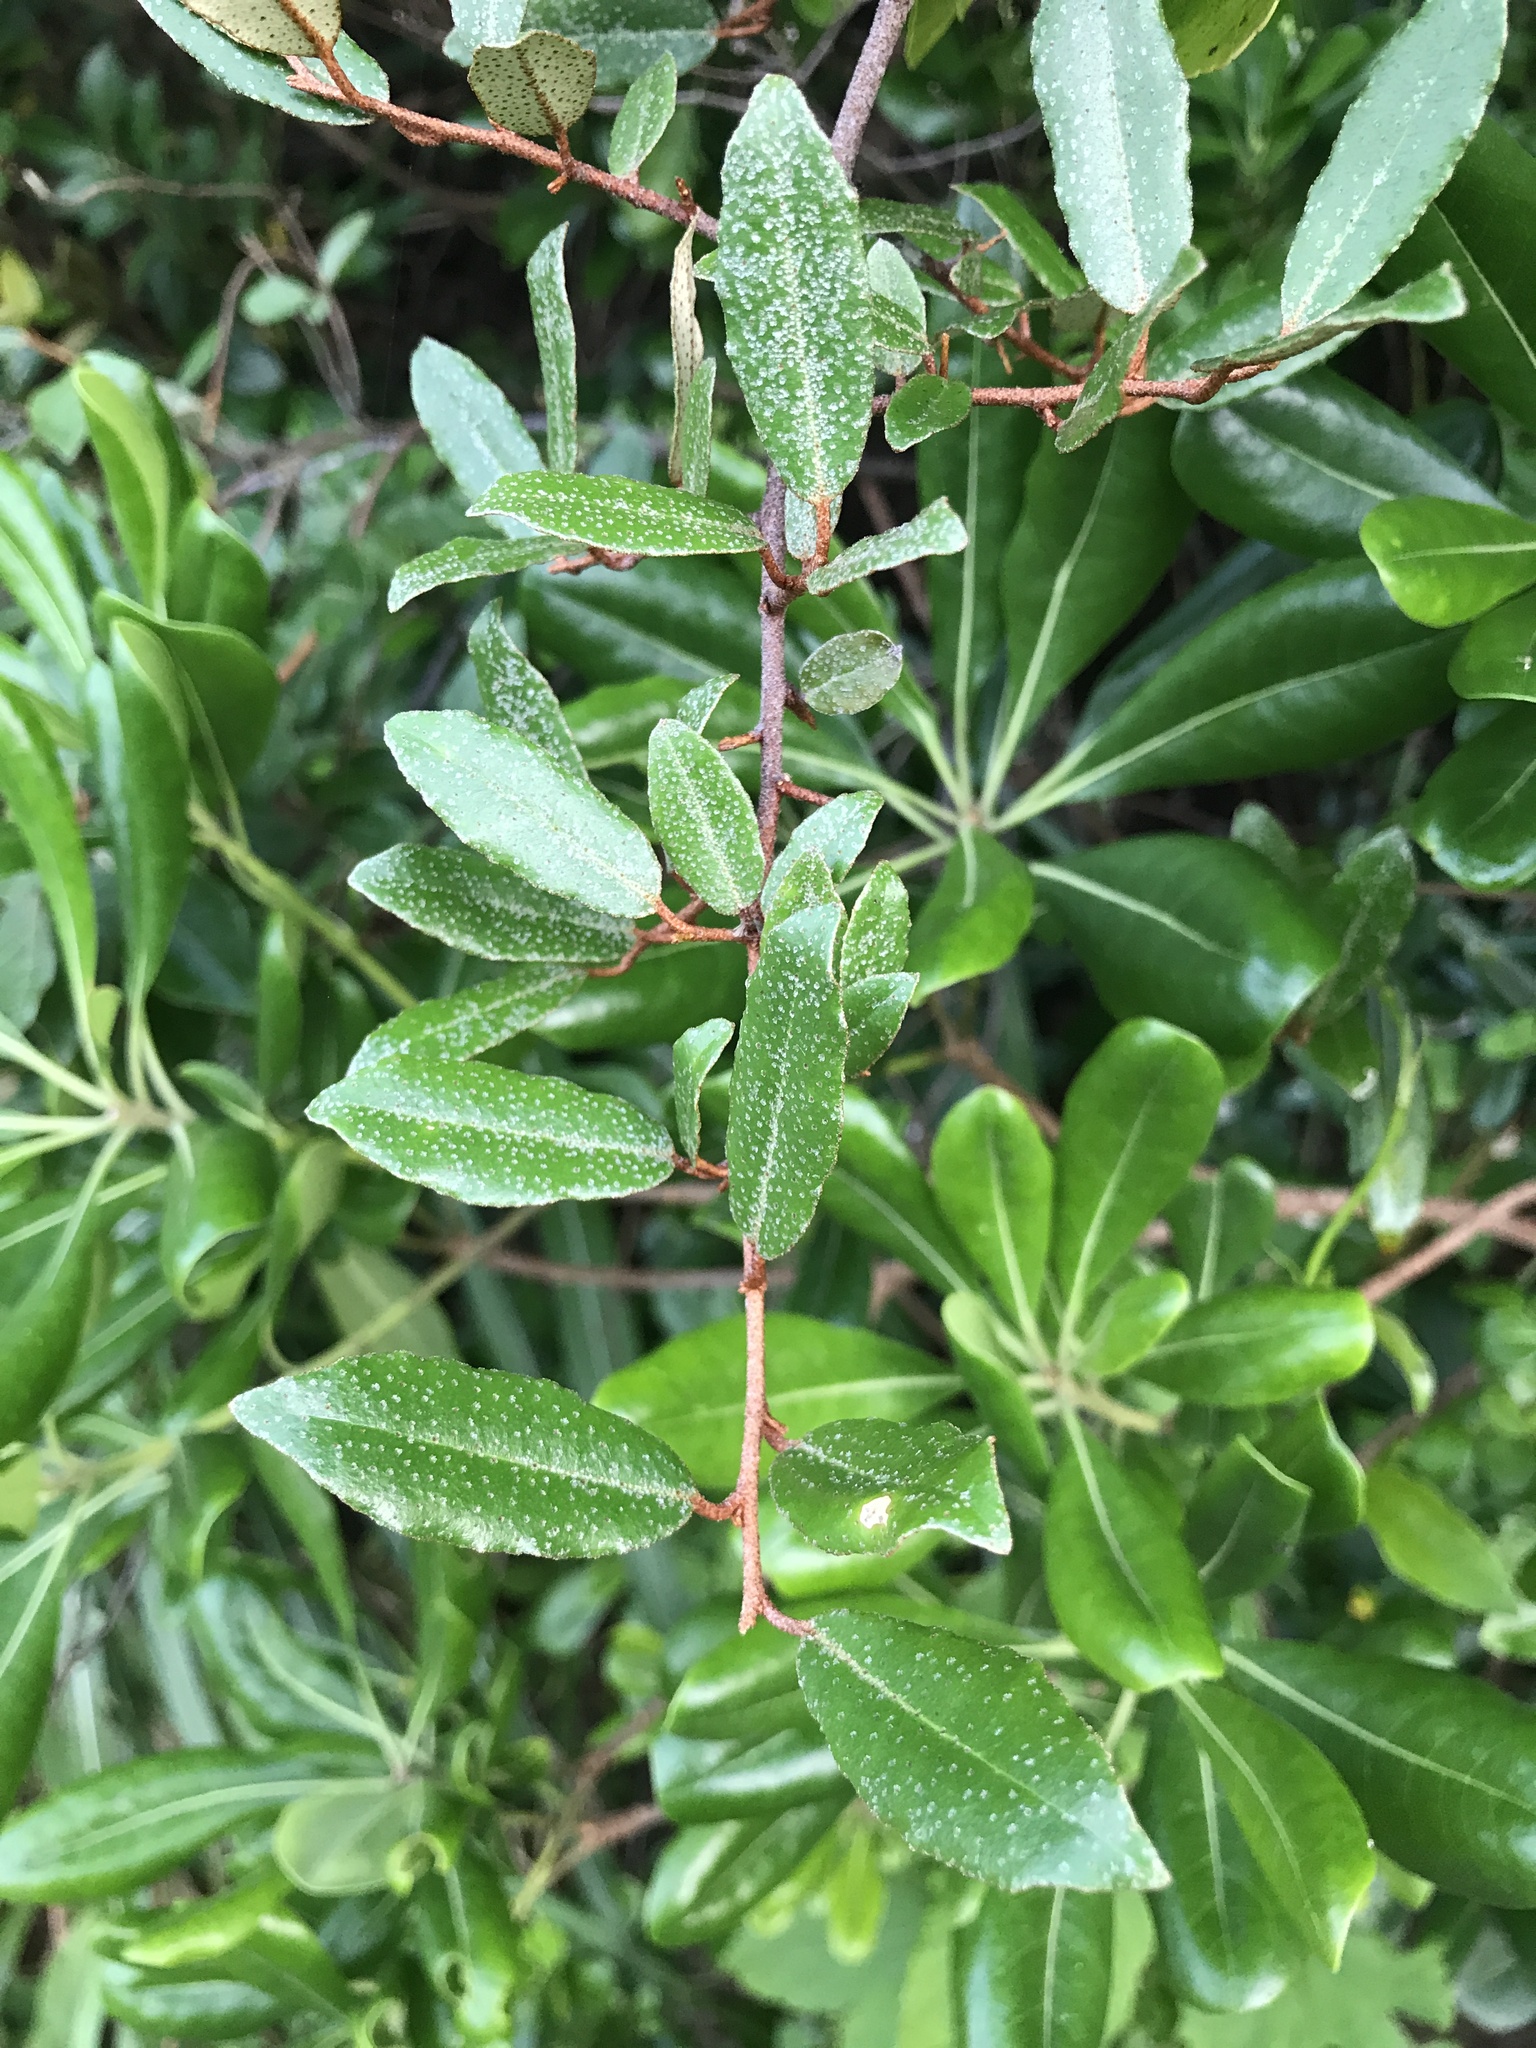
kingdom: Plantae
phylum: Tracheophyta
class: Magnoliopsida
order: Rosales
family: Elaeagnaceae
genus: Elaeagnus
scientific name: Elaeagnus pungens
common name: Spiny oleaster
